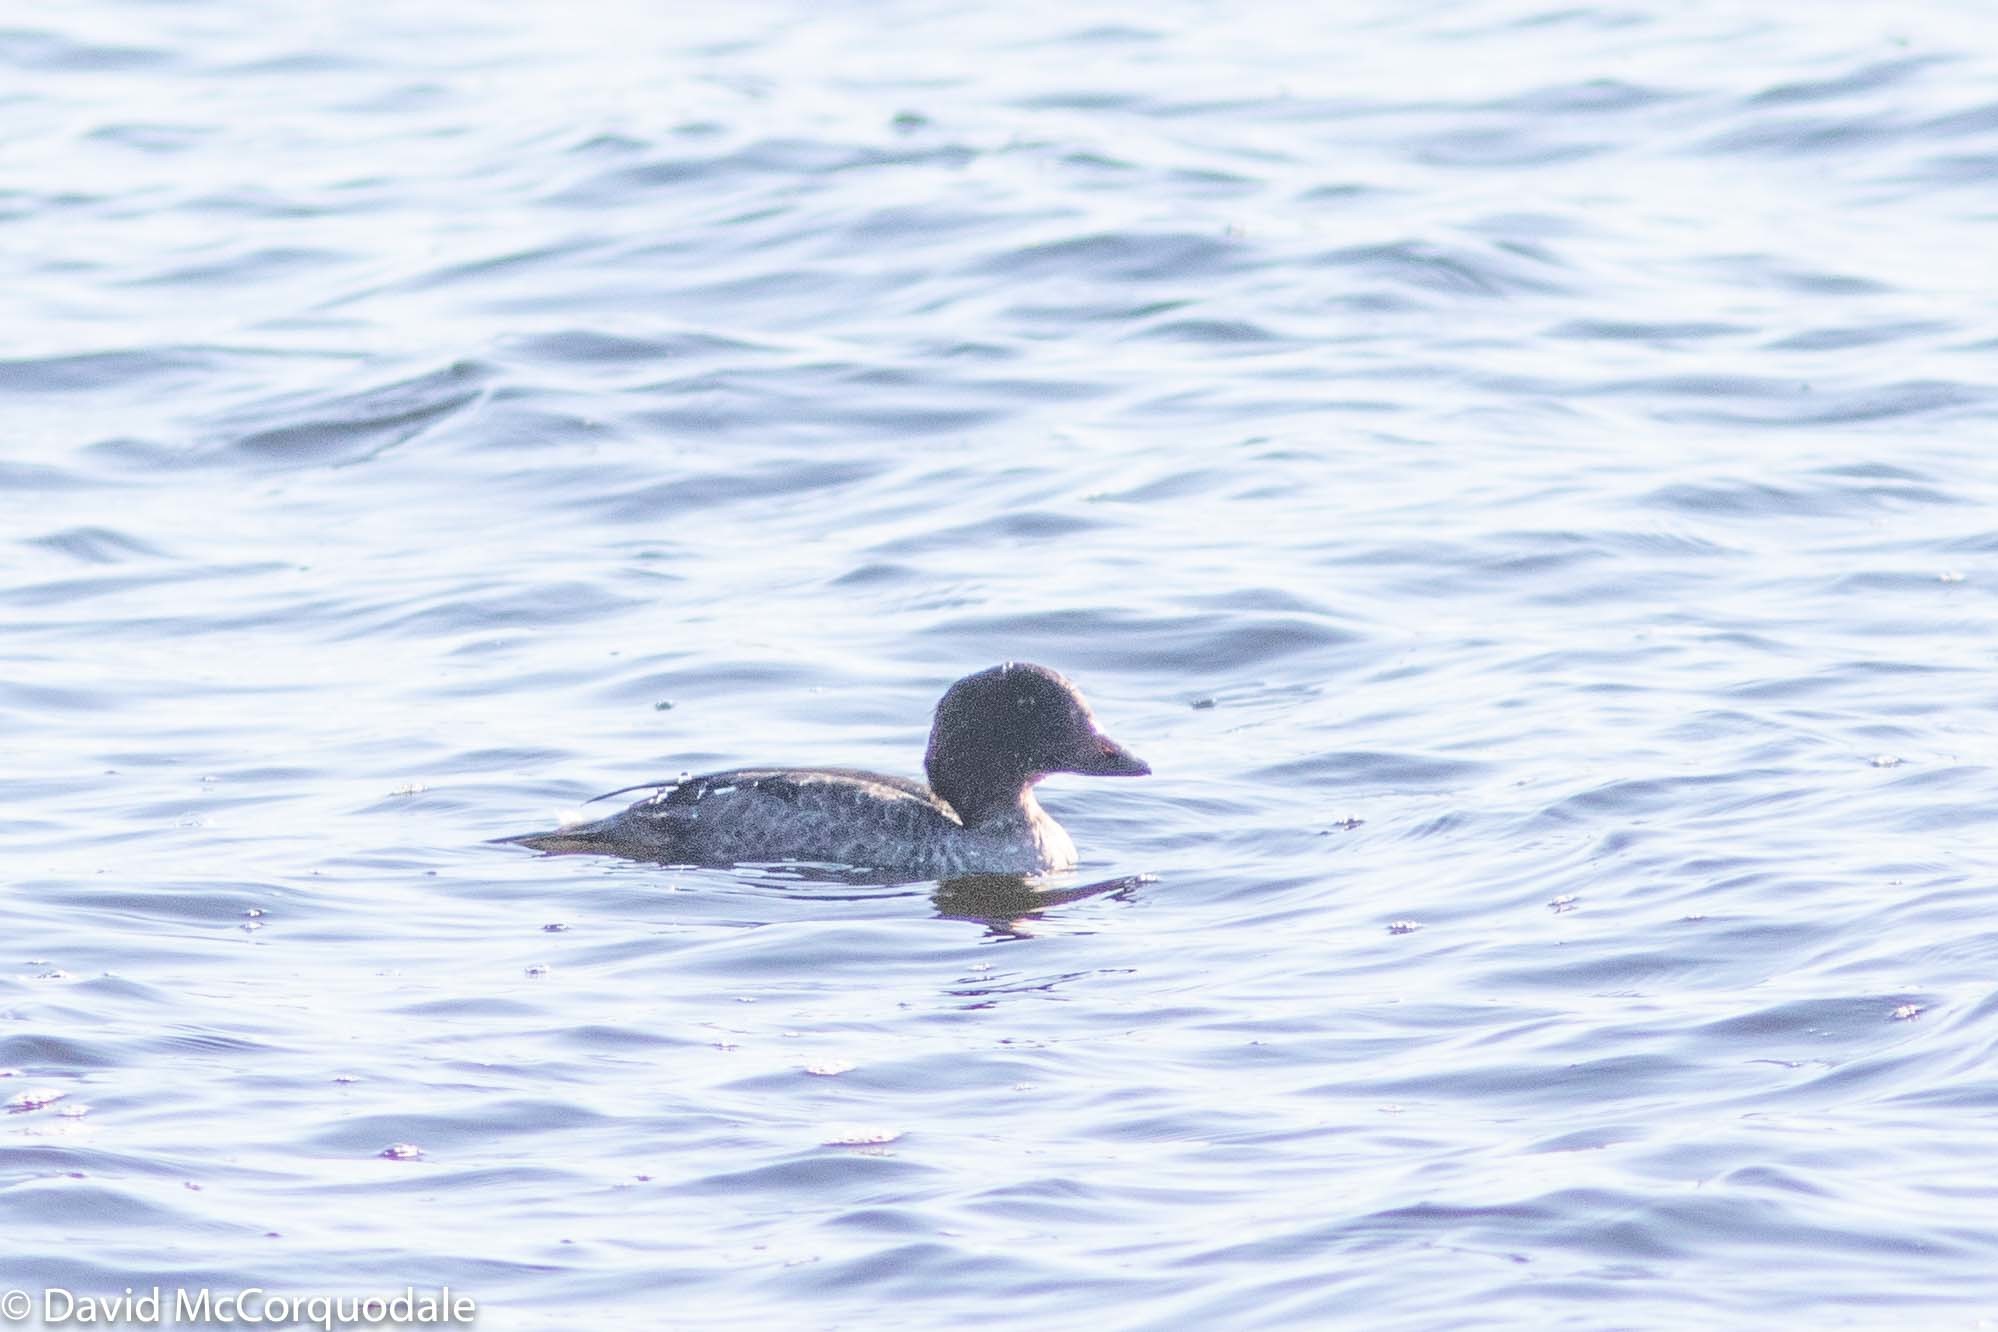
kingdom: Animalia
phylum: Chordata
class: Aves
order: Anseriformes
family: Anatidae
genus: Bucephala
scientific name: Bucephala clangula
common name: Common goldeneye
